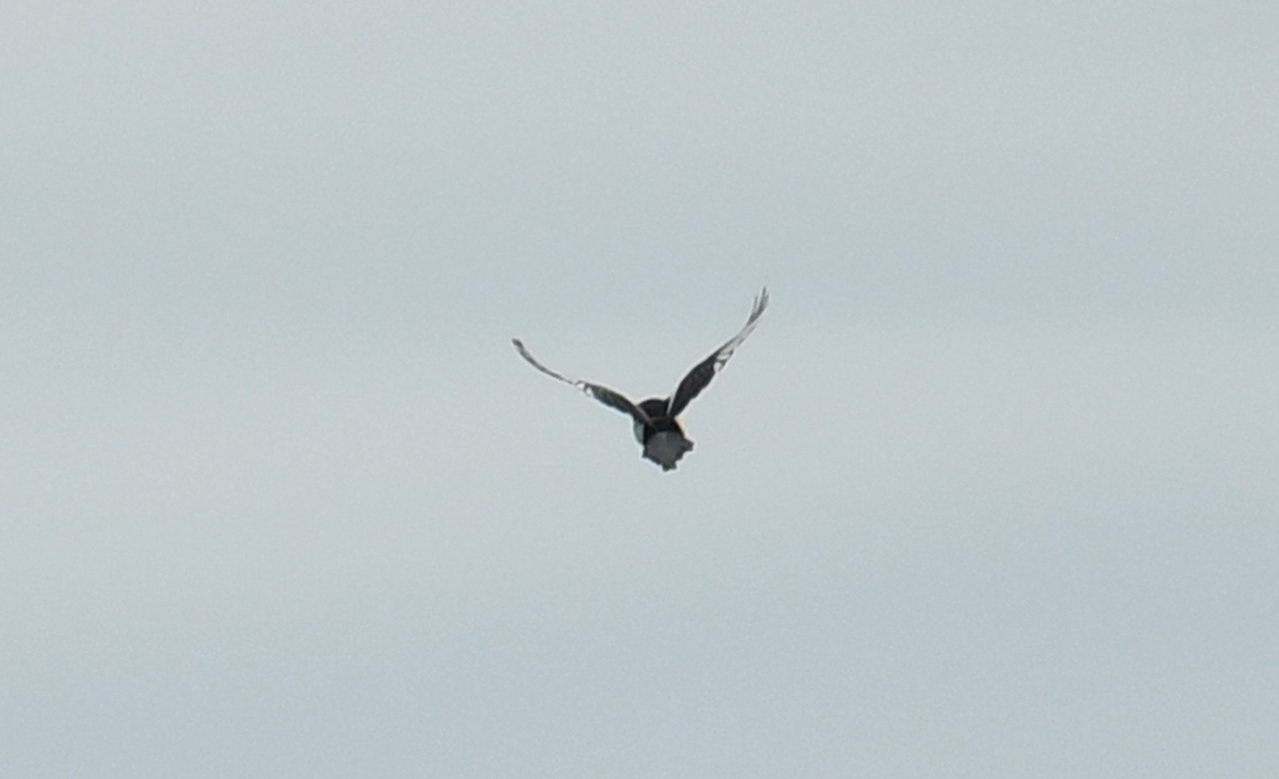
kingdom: Animalia
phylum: Chordata
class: Aves
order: Passeriformes
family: Corvidae
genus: Pica
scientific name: Pica pica
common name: Eurasian magpie
